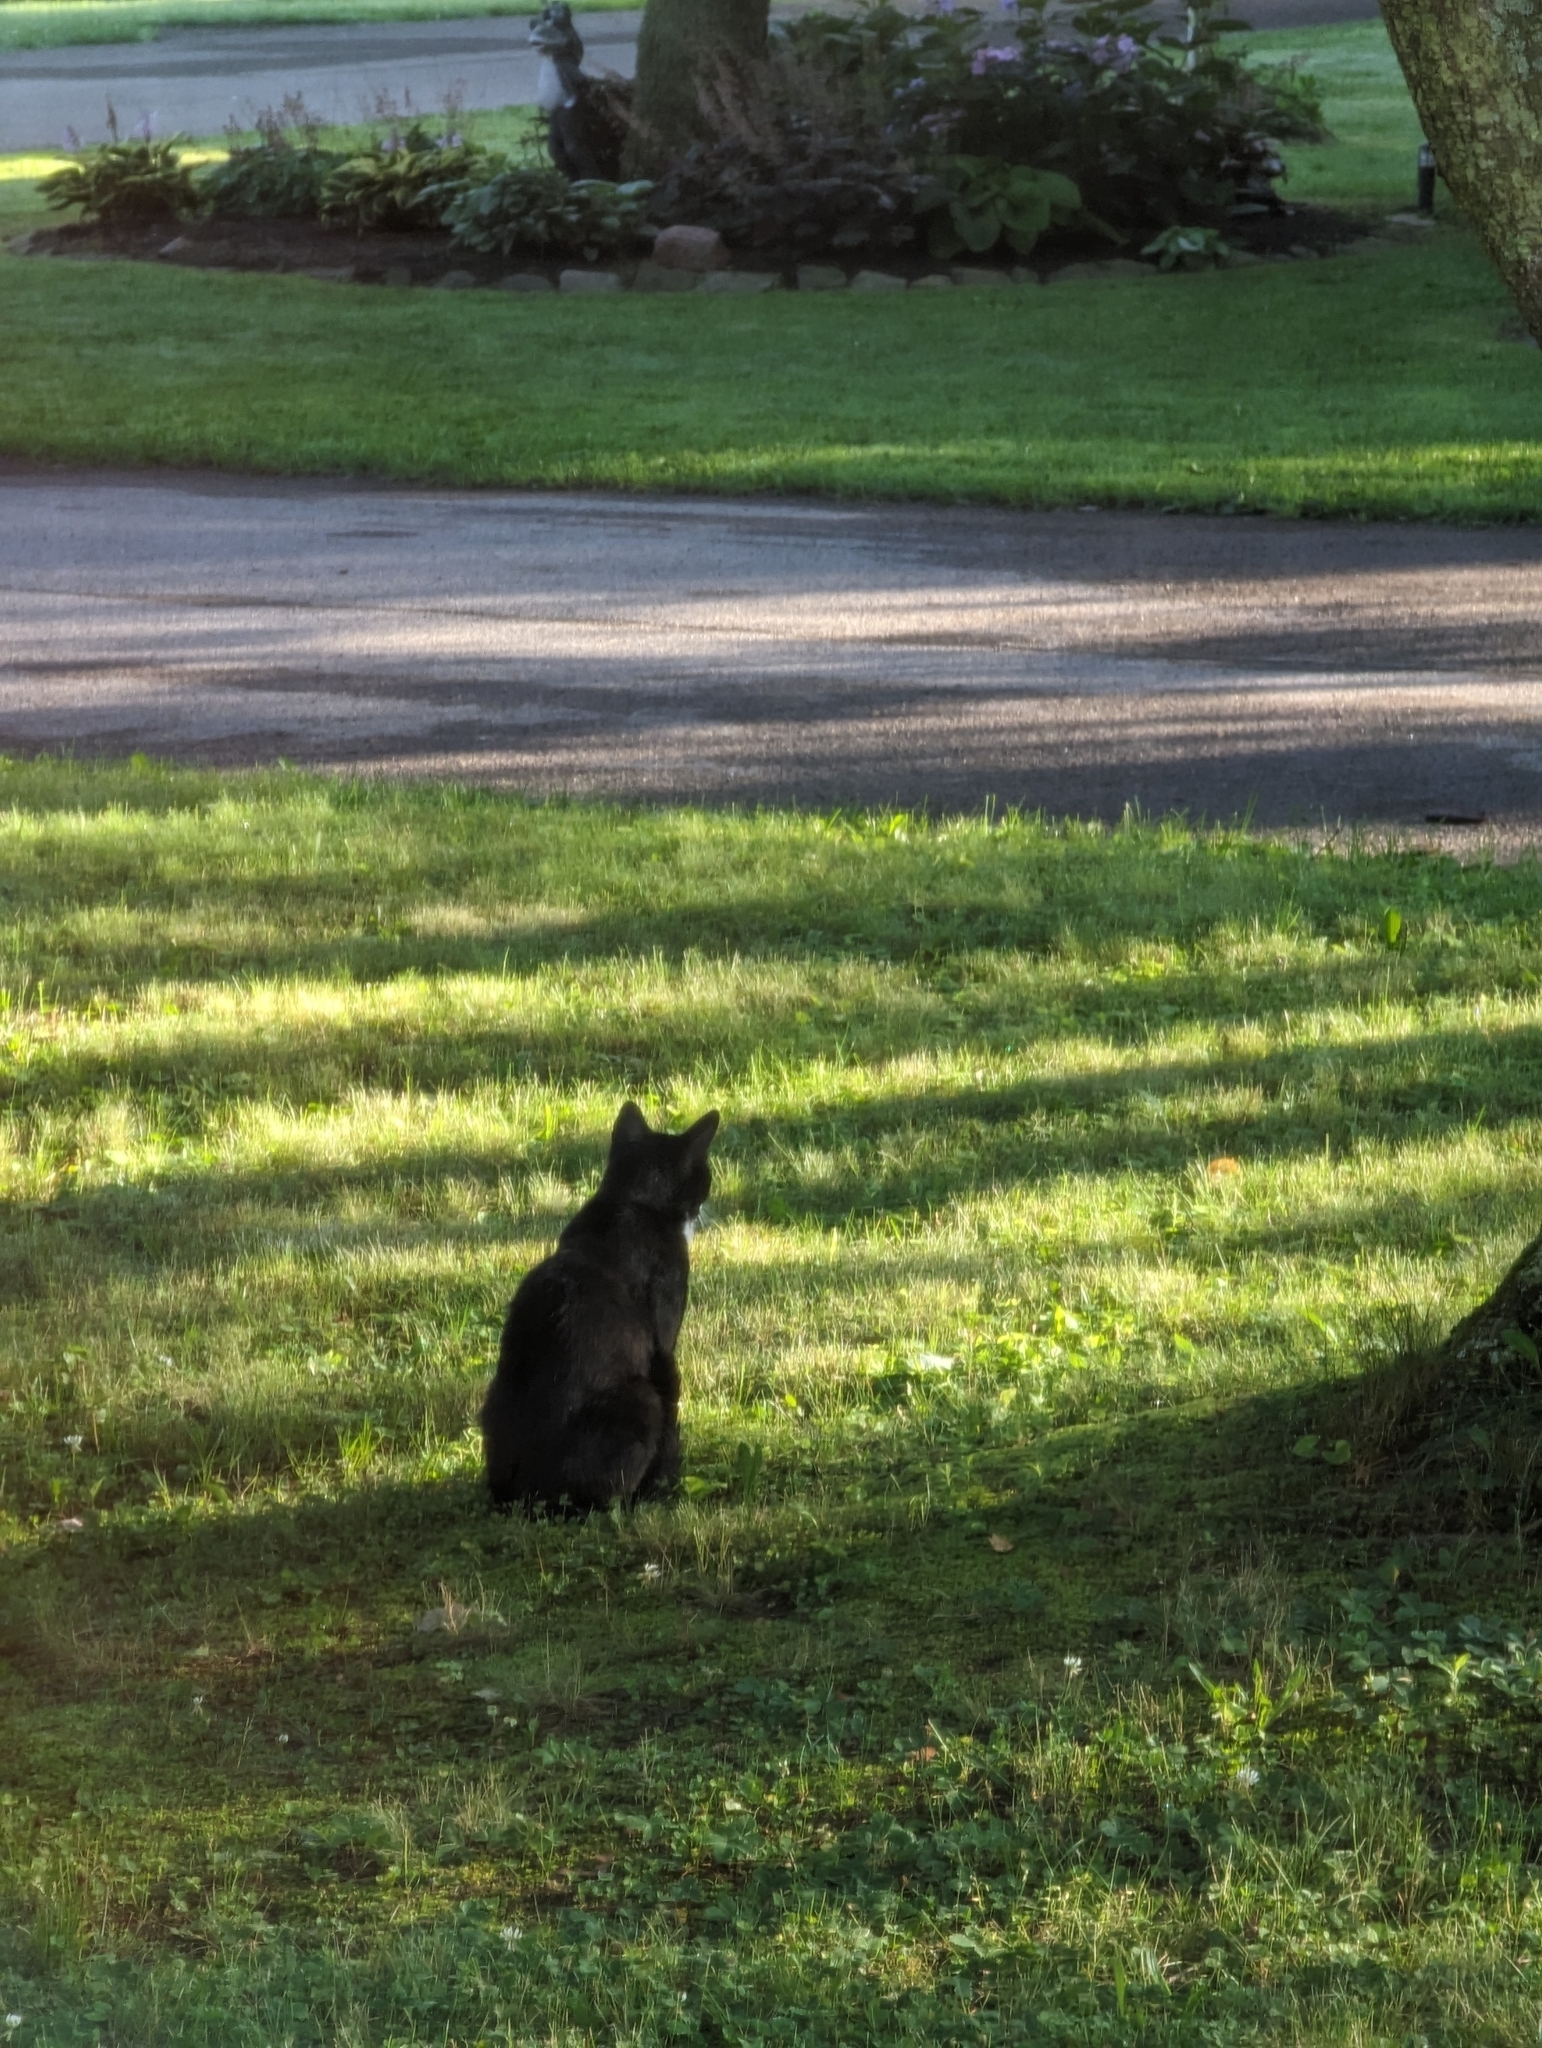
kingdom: Animalia
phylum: Chordata
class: Mammalia
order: Carnivora
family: Felidae
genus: Felis
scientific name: Felis catus
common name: Domestic cat
